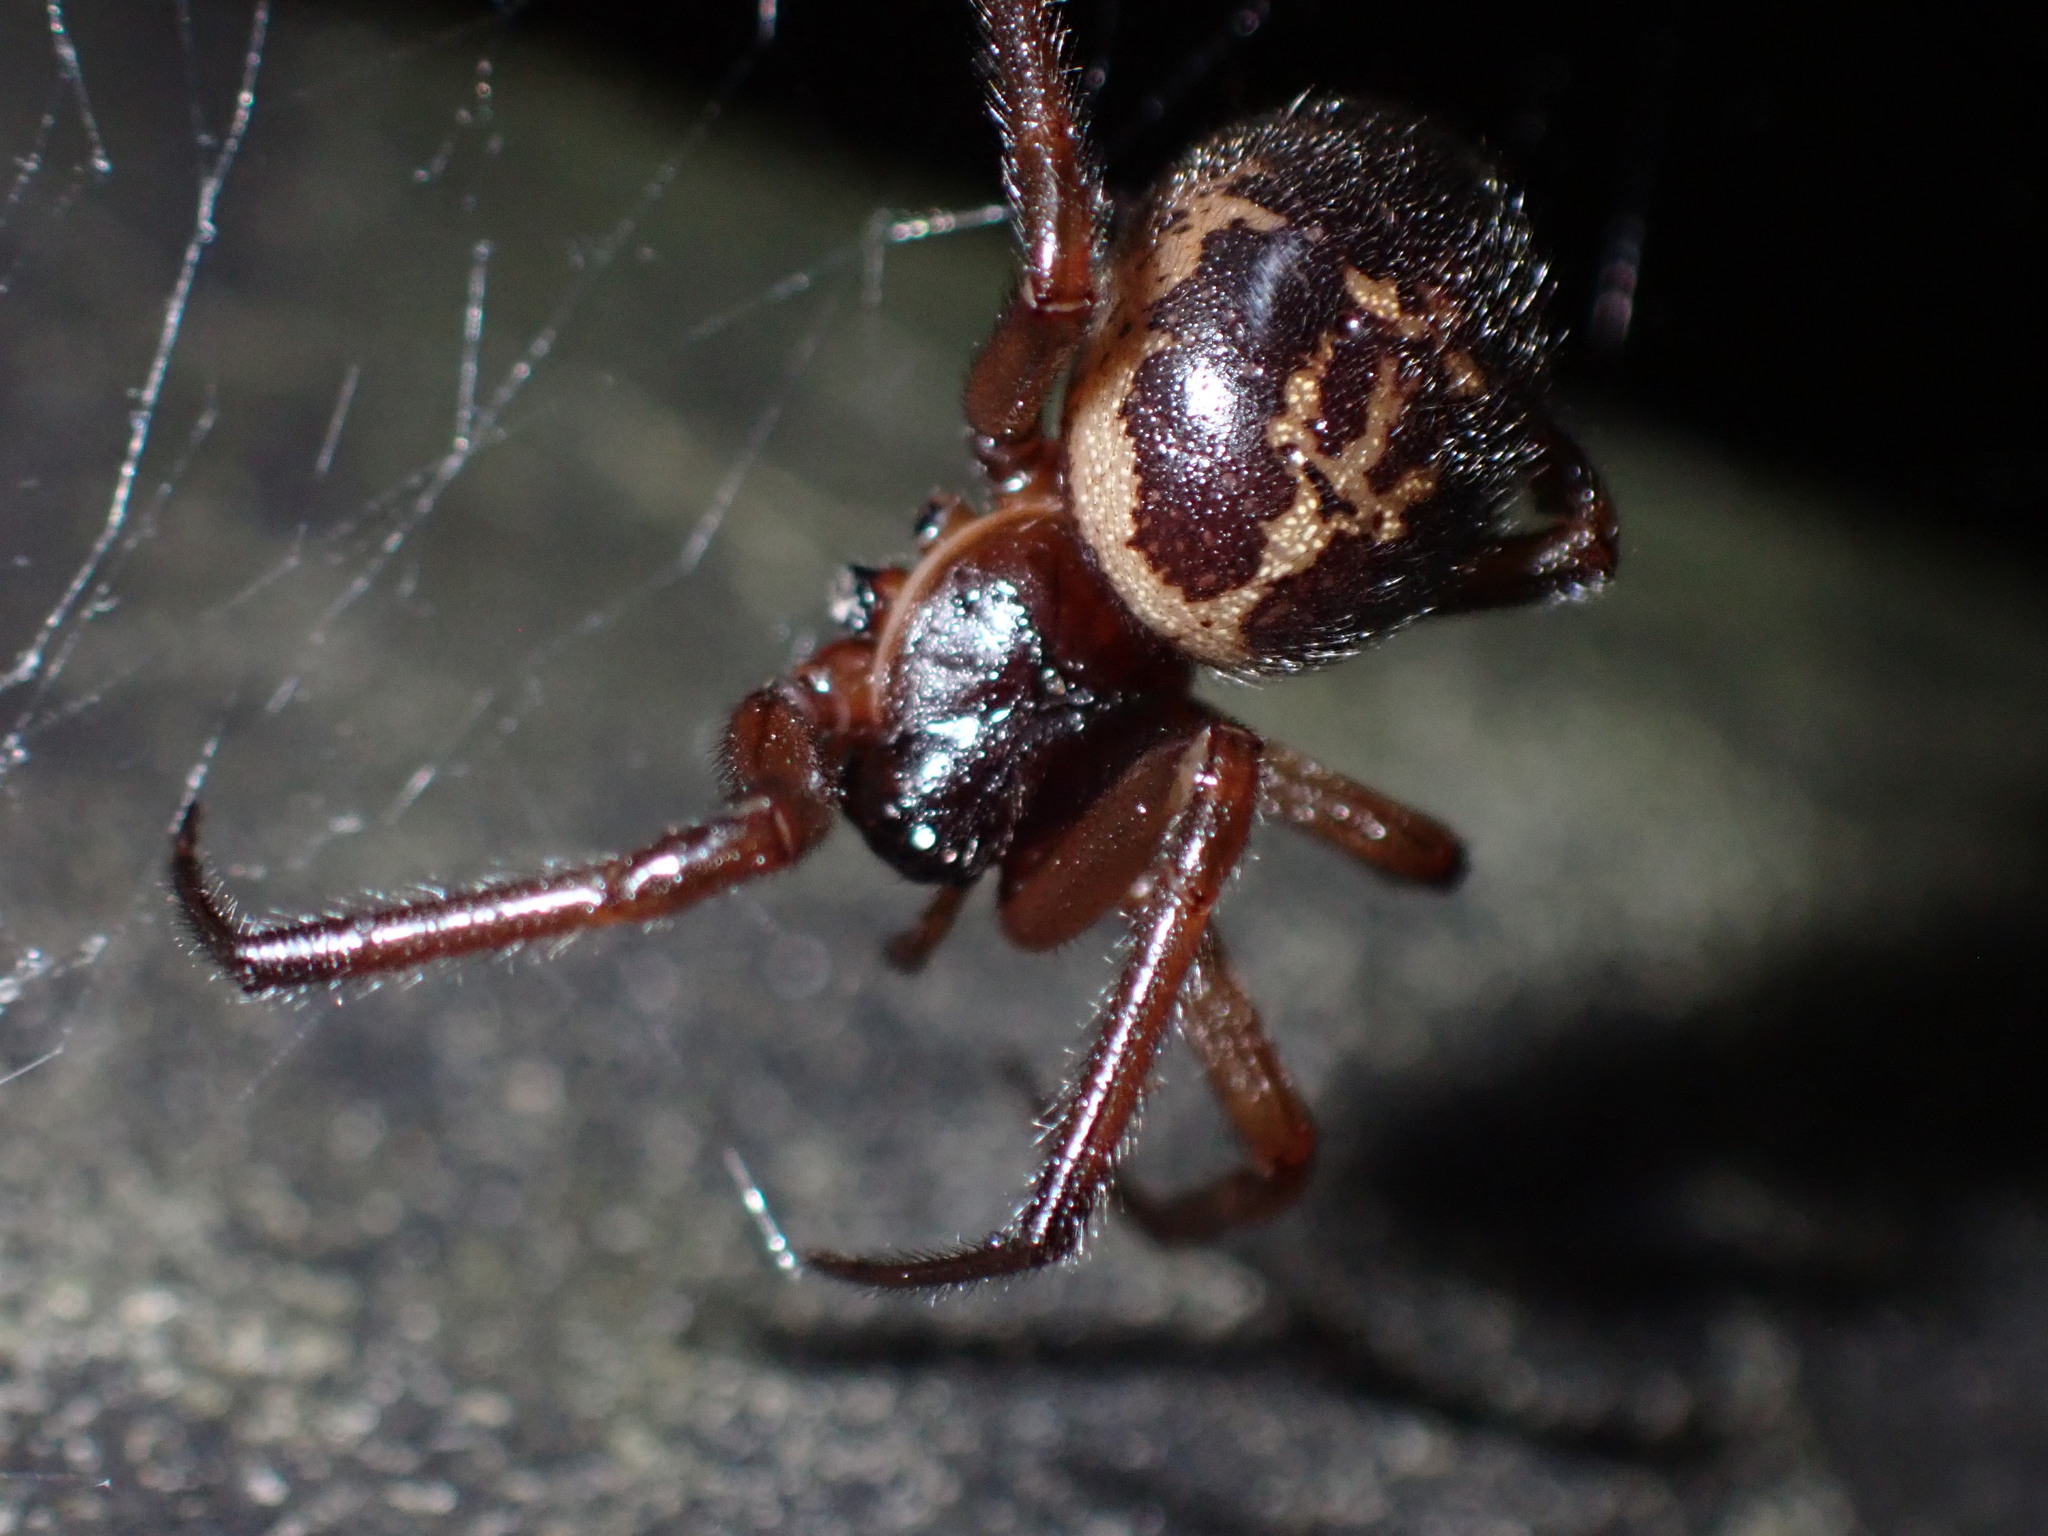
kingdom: Animalia
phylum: Arthropoda
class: Arachnida
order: Araneae
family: Theridiidae
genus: Steatoda
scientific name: Steatoda nobilis
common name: Cobweb weaver
